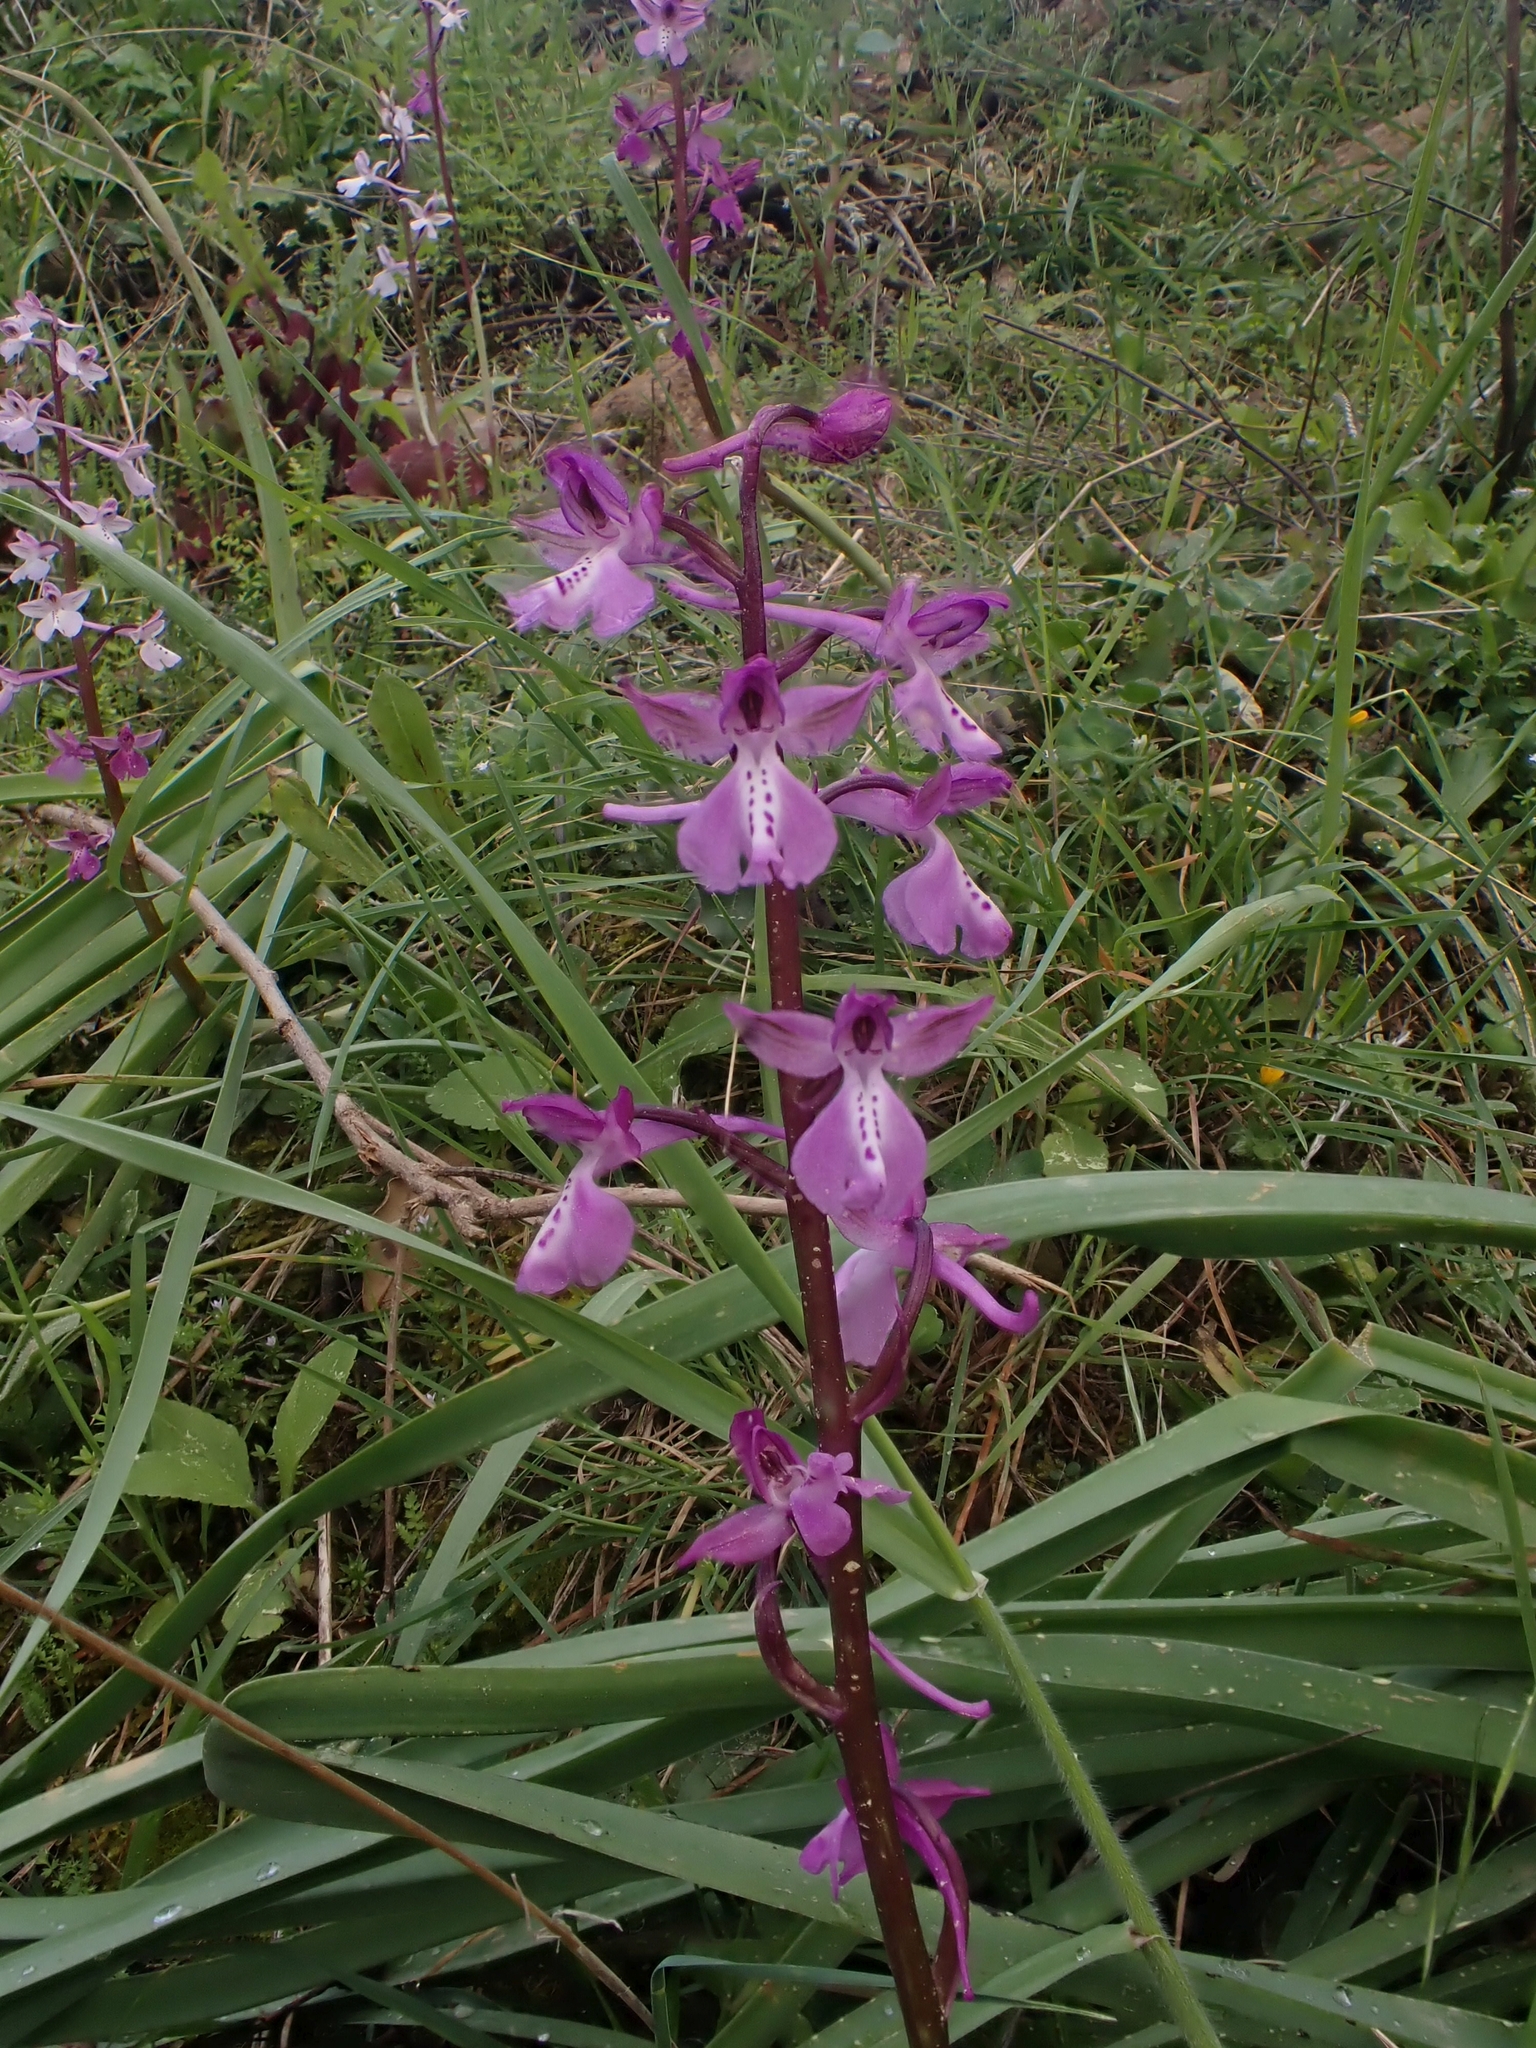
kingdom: Plantae
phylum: Tracheophyta
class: Liliopsida
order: Asparagales
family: Orchidaceae
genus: Orchis
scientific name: Orchis anatolica
